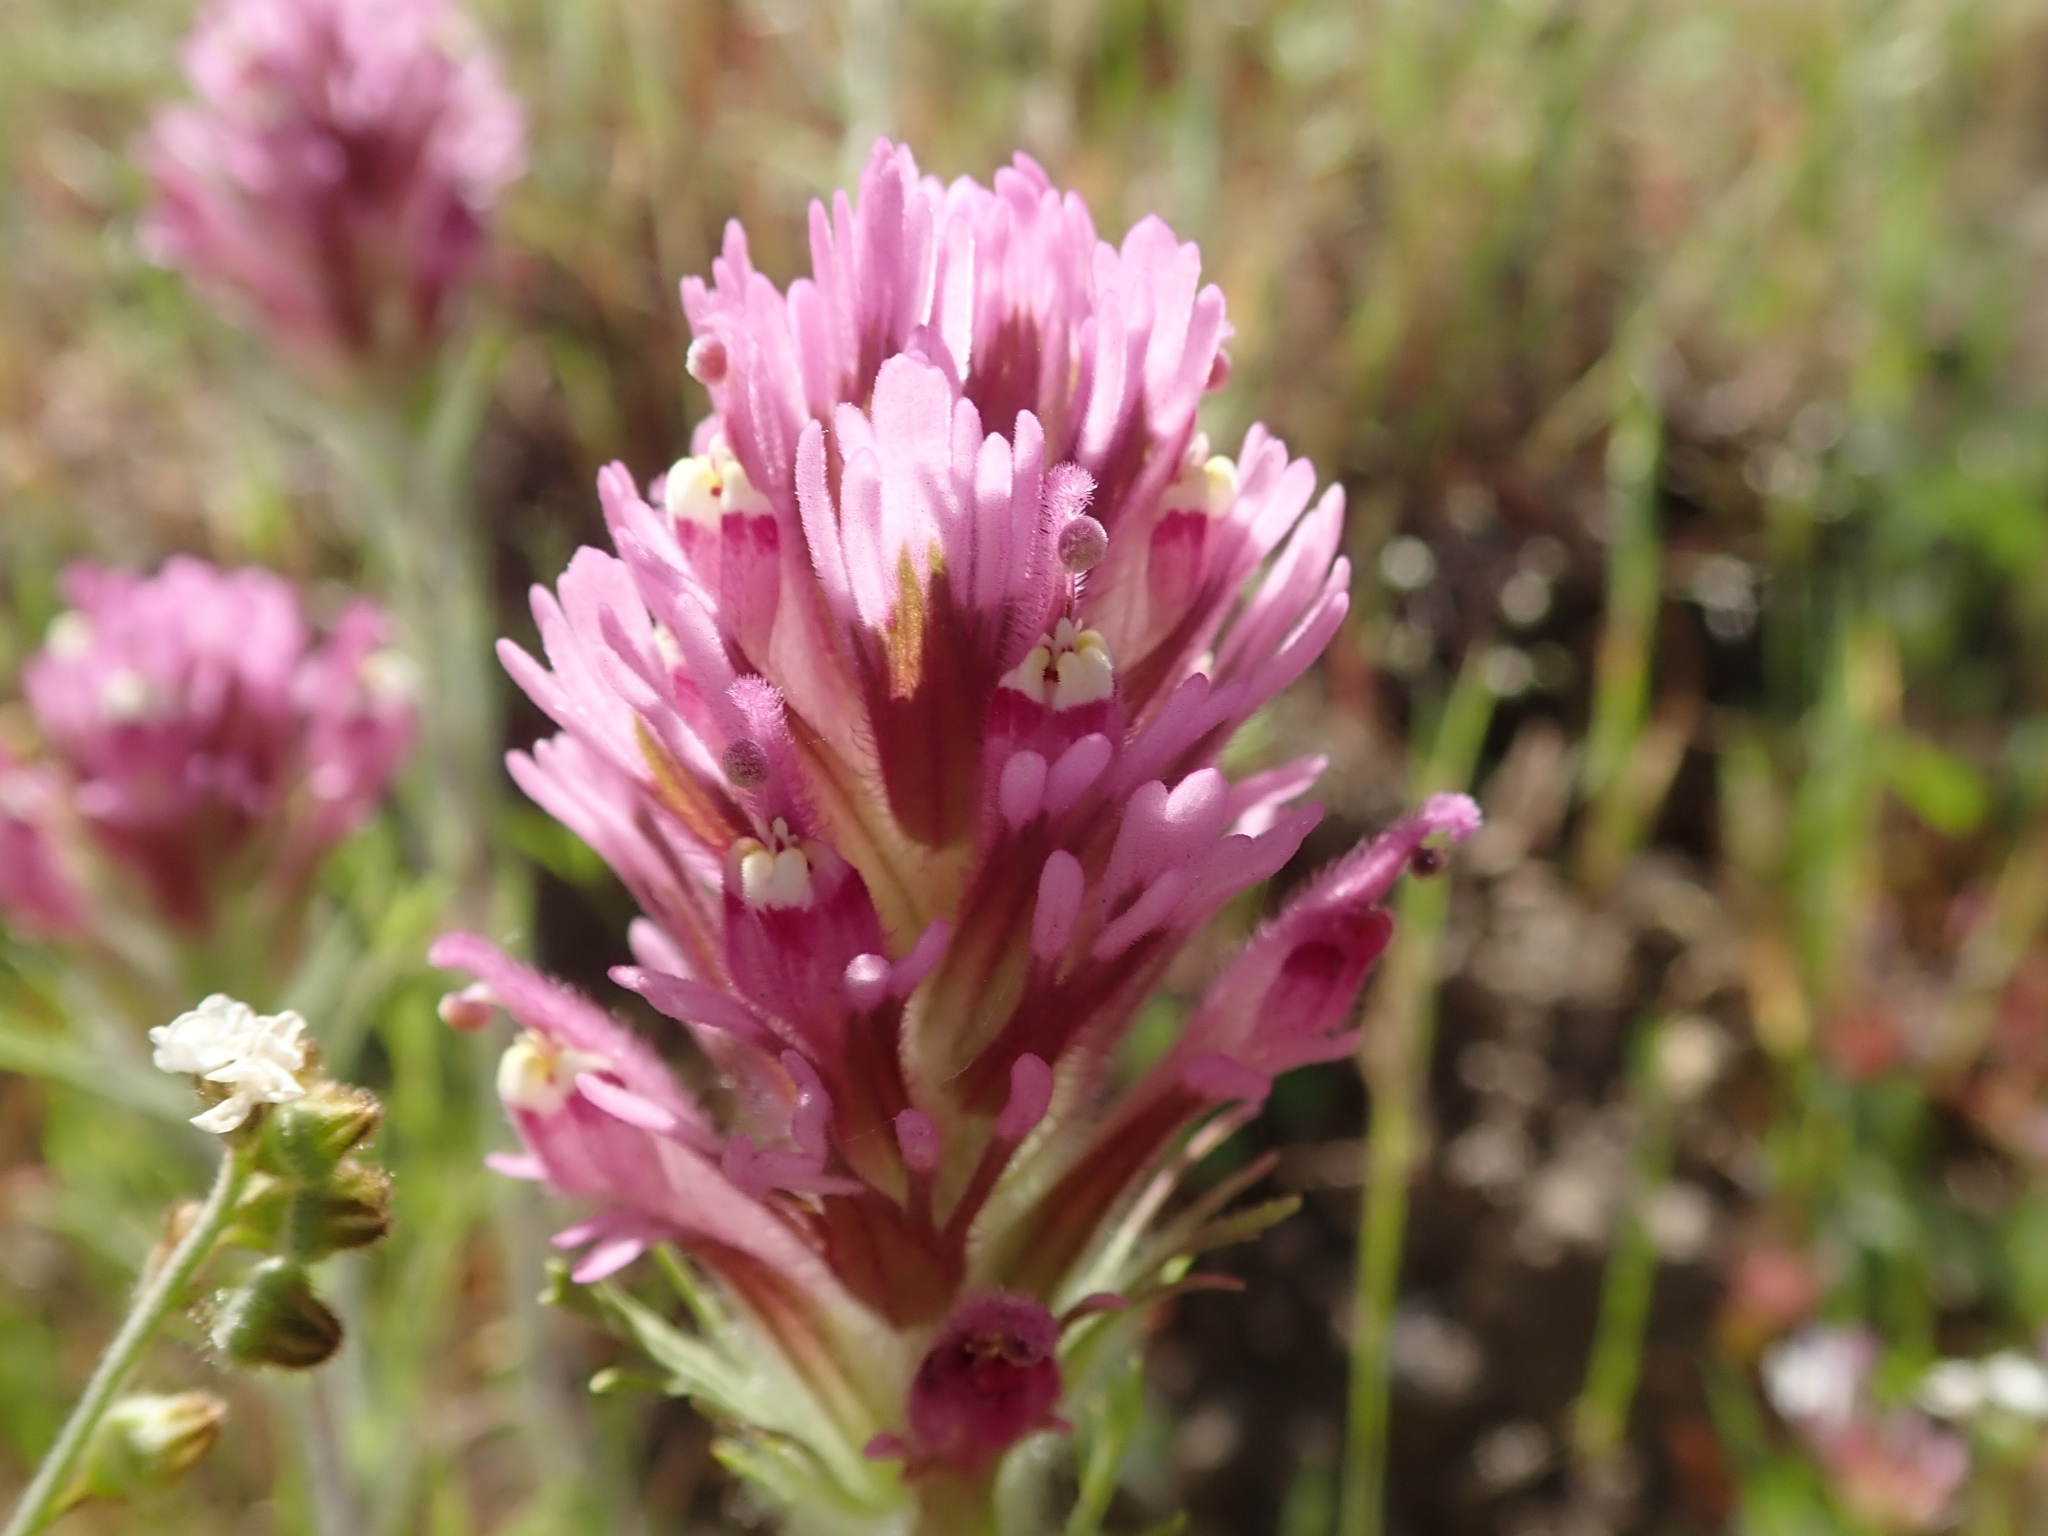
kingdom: Plantae
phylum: Tracheophyta
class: Magnoliopsida
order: Lamiales
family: Orobanchaceae
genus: Castilleja
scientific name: Castilleja exserta
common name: Purple owl-clover
